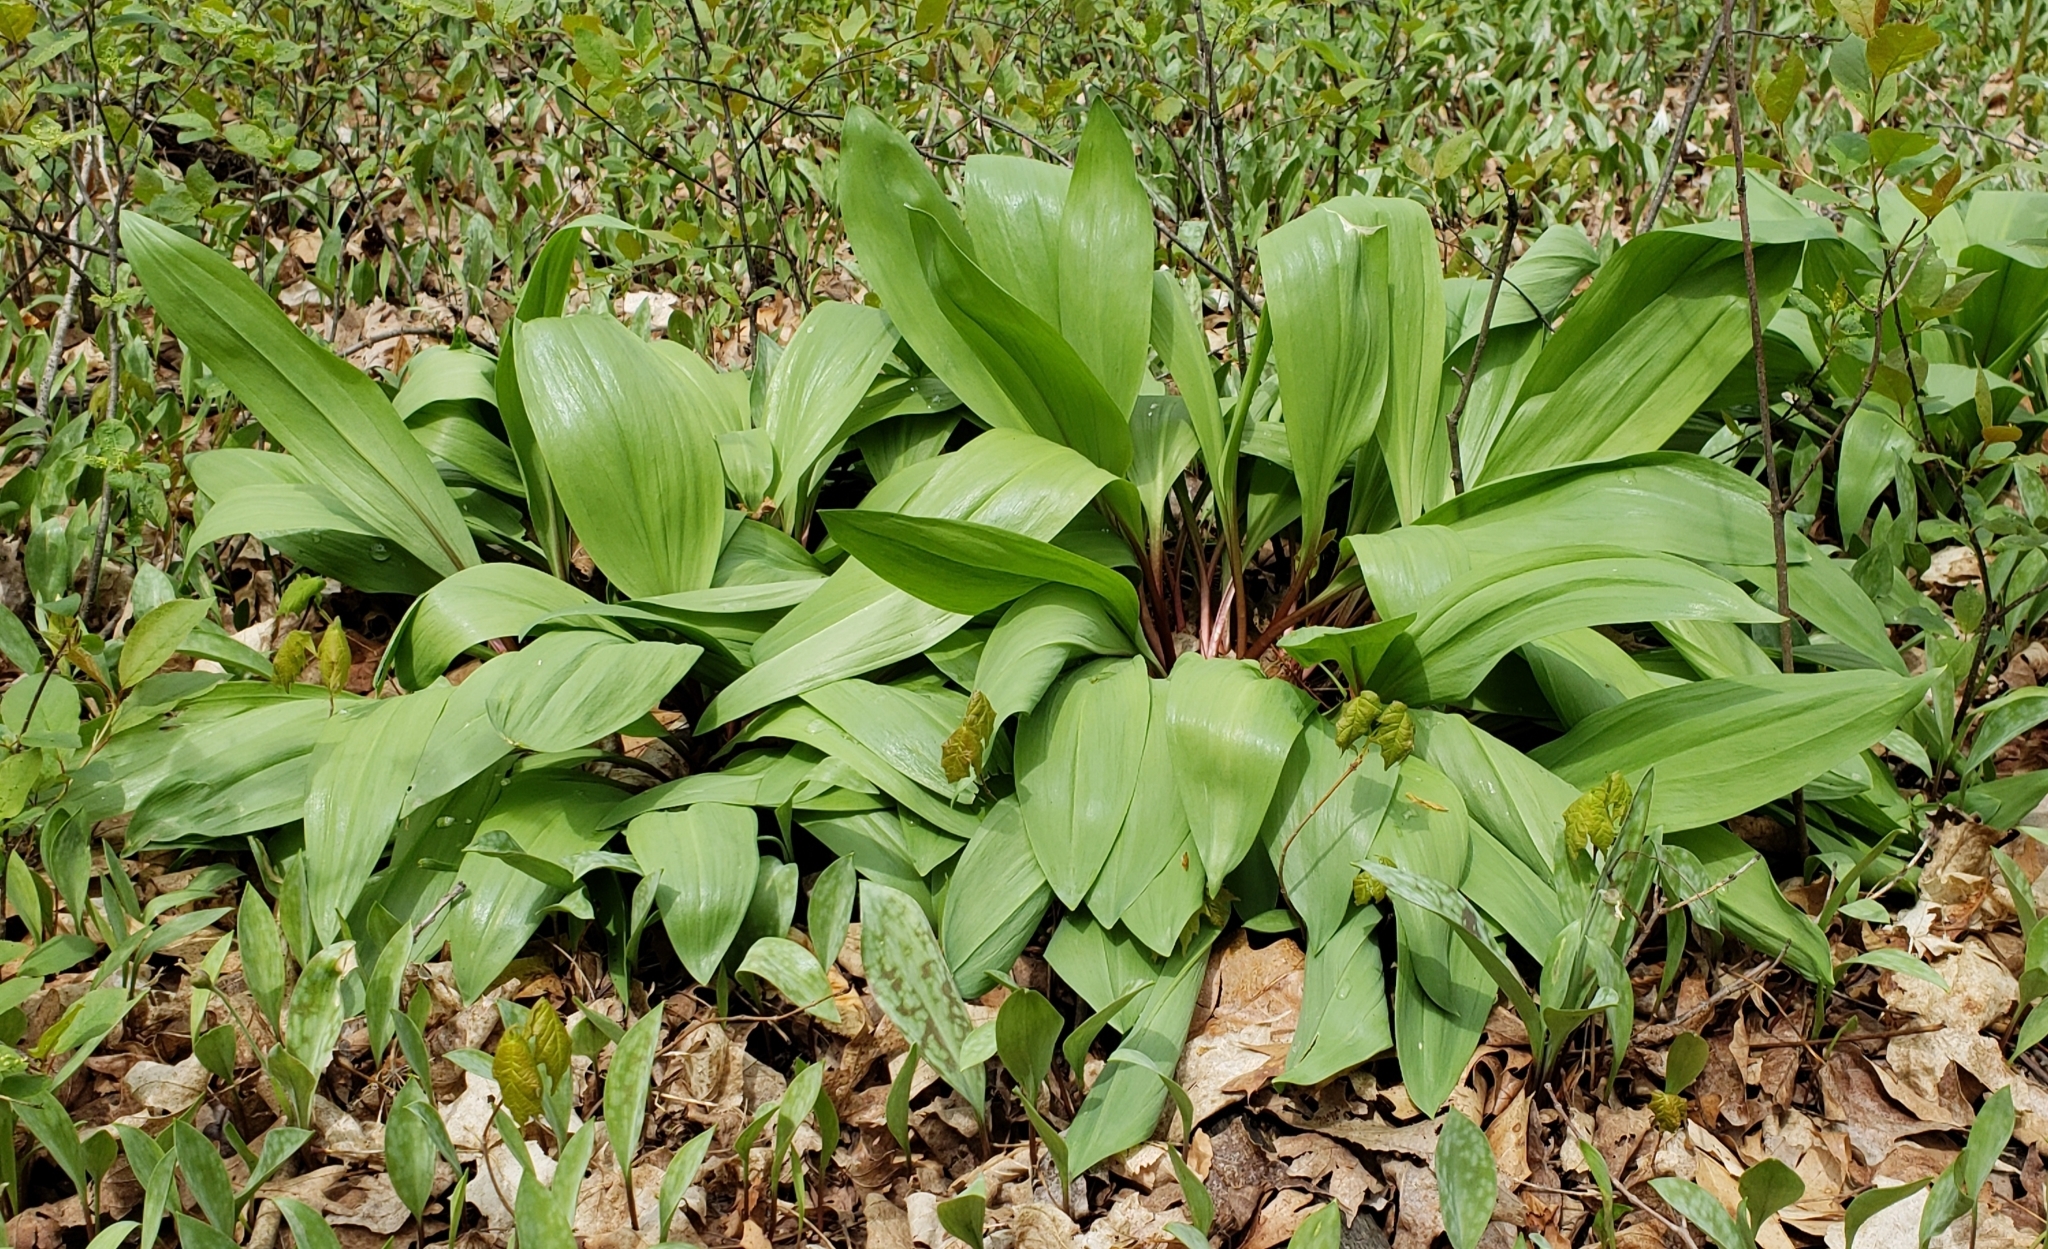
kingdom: Plantae
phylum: Tracheophyta
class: Liliopsida
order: Asparagales
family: Amaryllidaceae
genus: Allium
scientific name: Allium tricoccum
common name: Ramp
